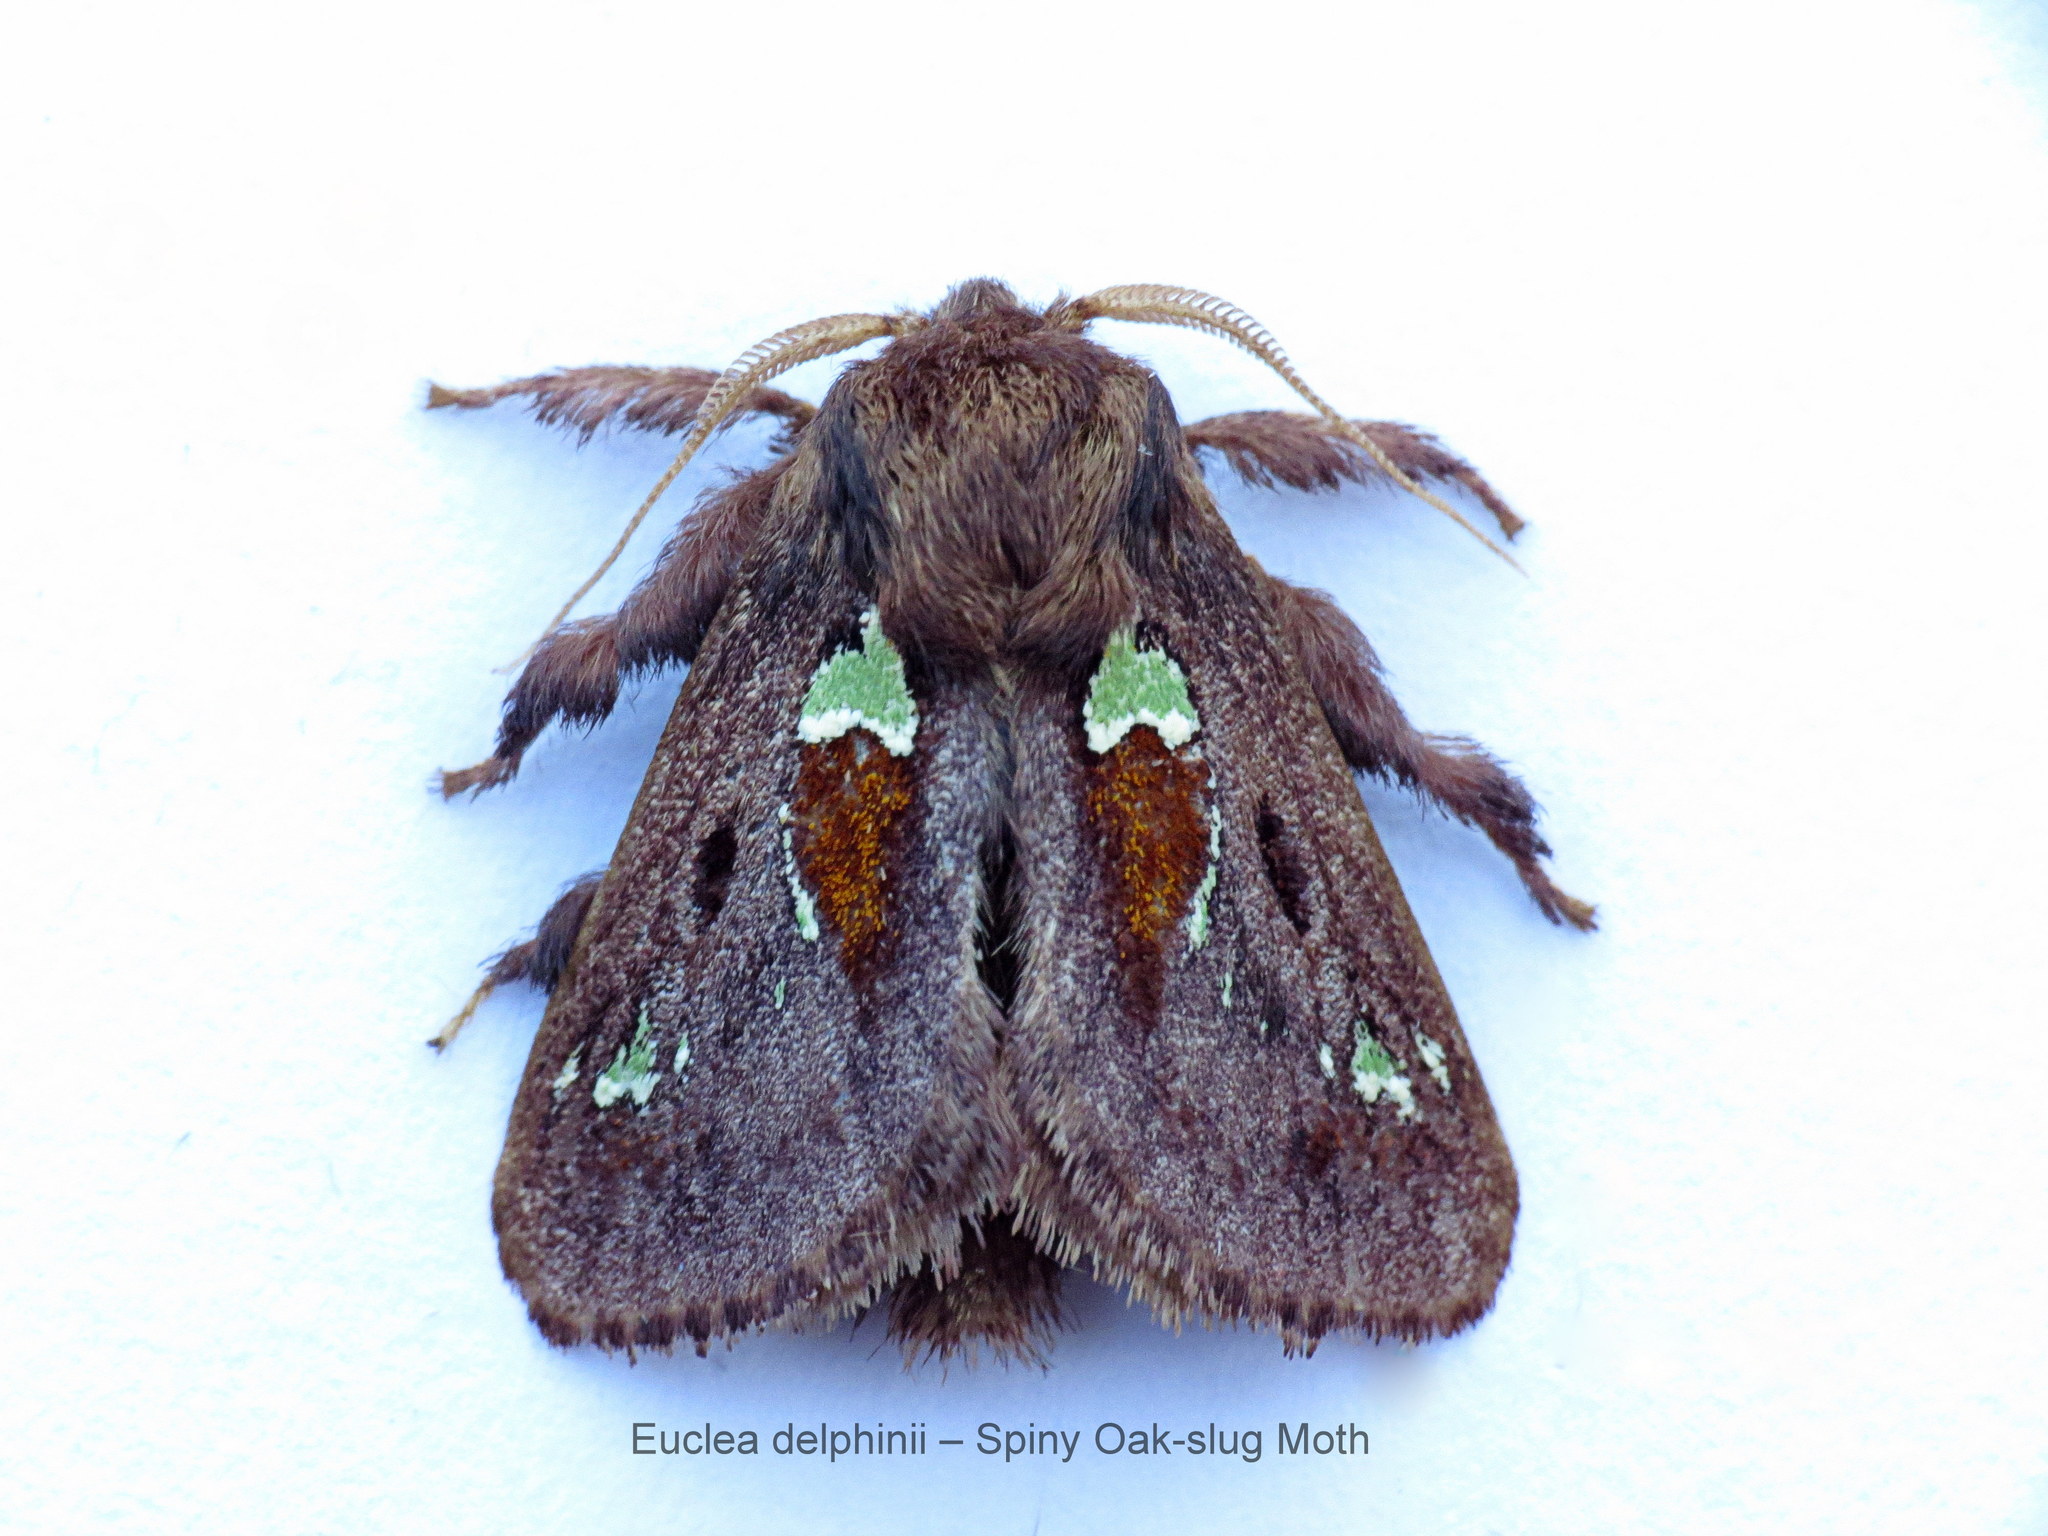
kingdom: Animalia
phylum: Arthropoda
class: Insecta
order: Lepidoptera
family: Limacodidae
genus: Euclea
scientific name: Euclea delphinii
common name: Spiny oak-slug moth
